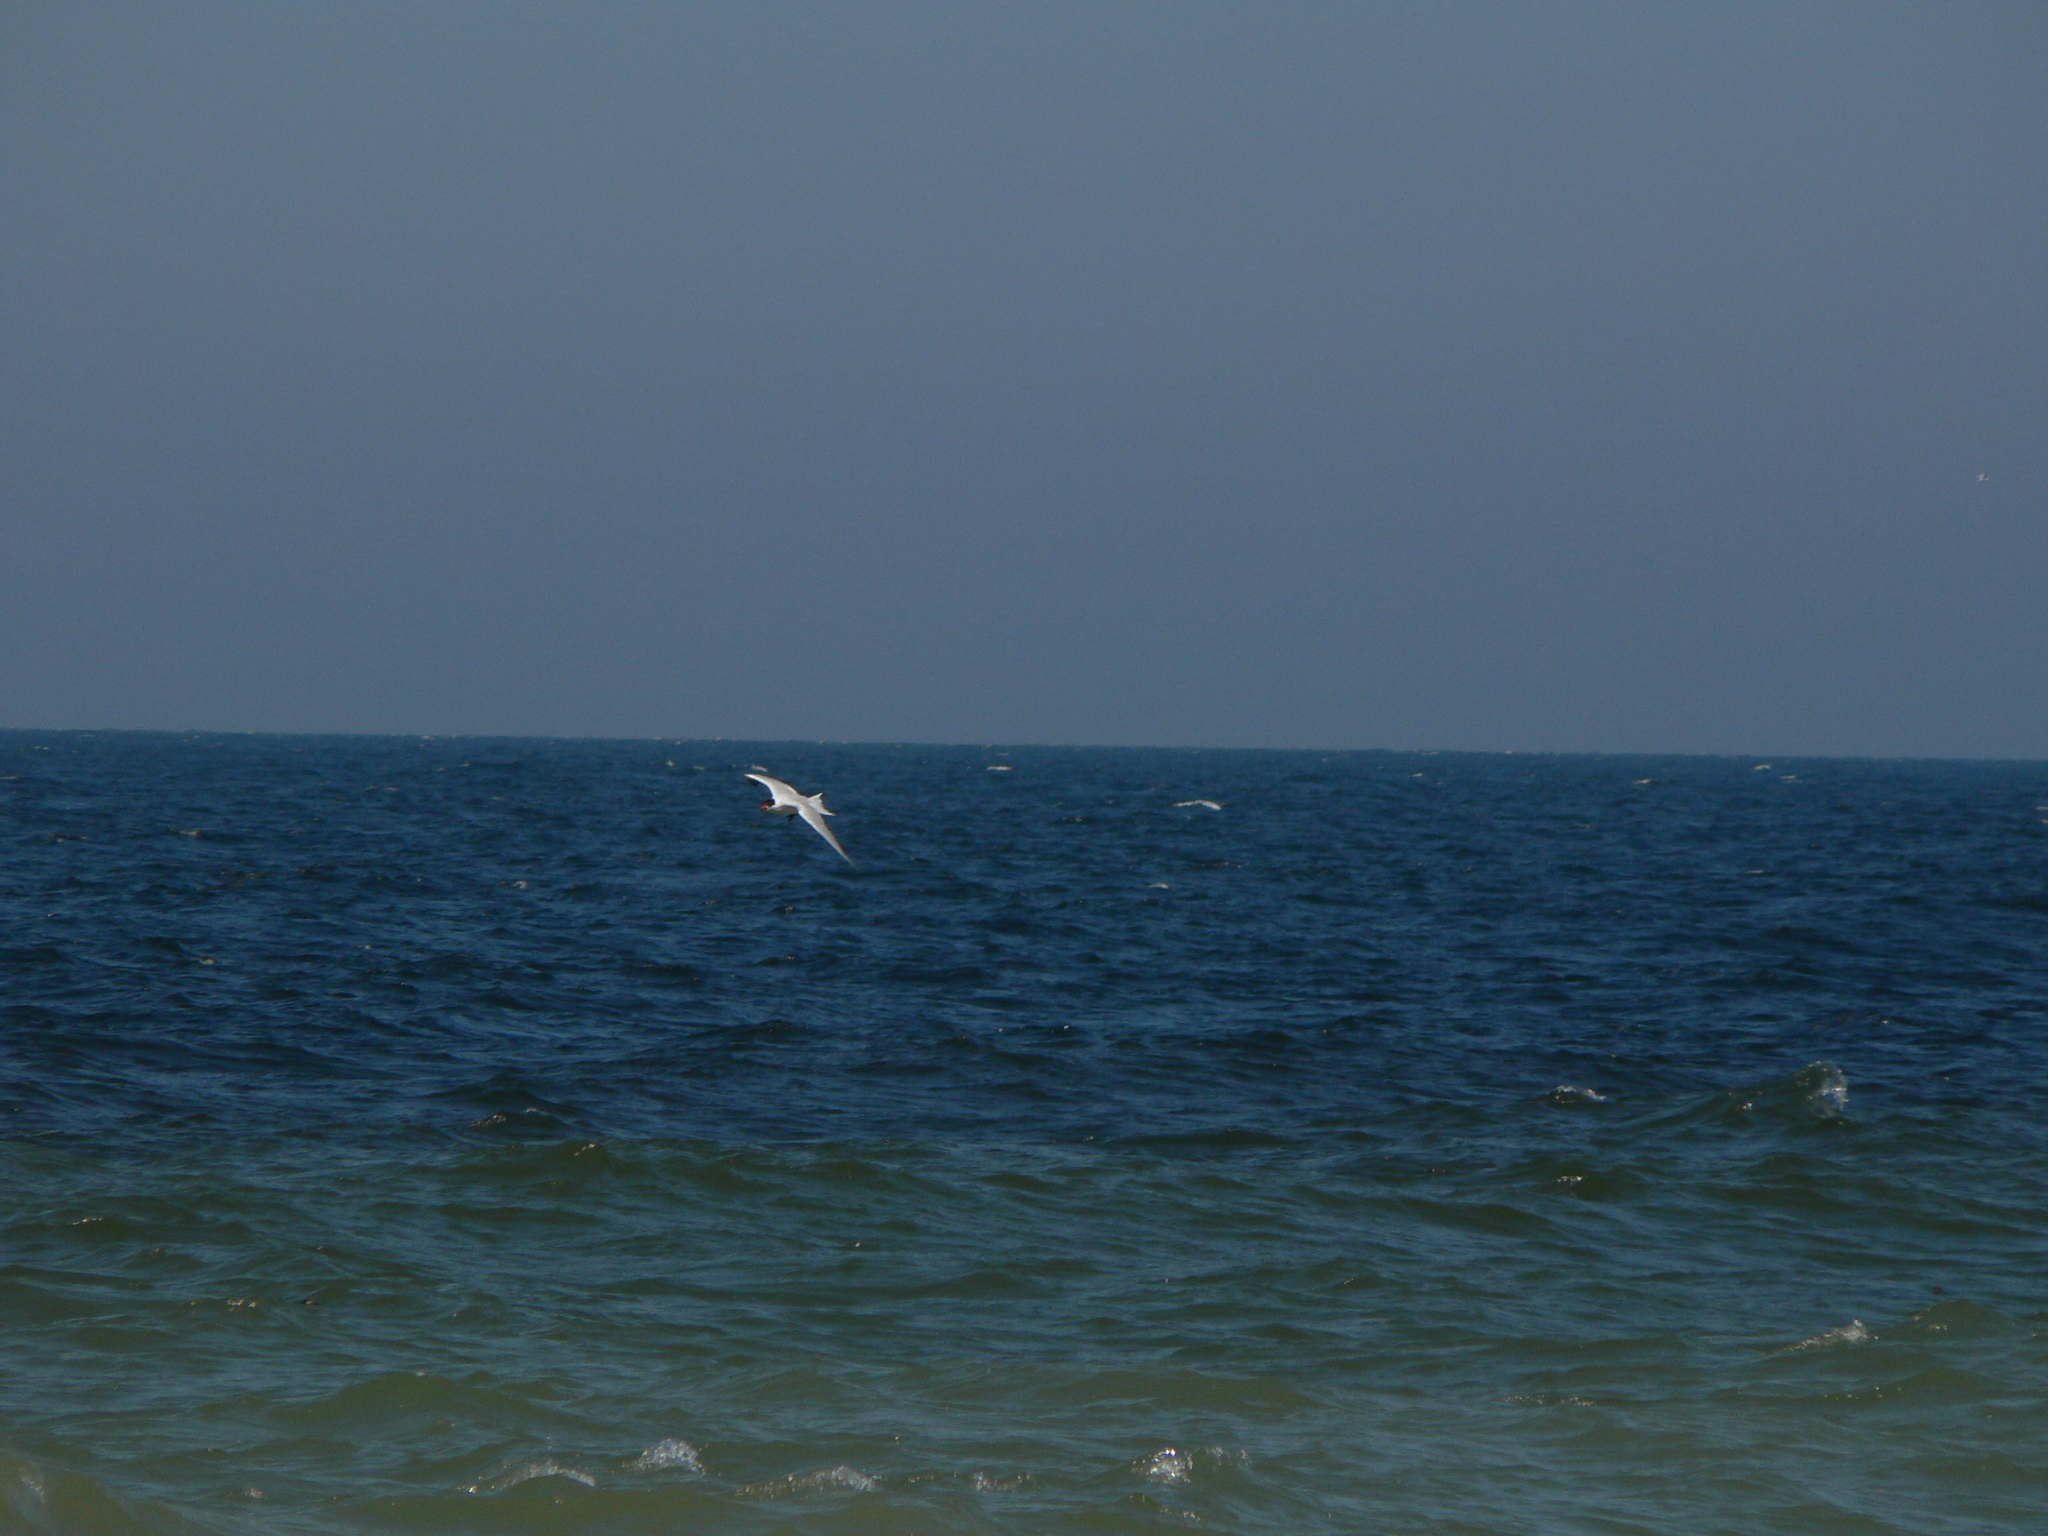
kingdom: Animalia
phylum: Chordata
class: Aves
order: Charadriiformes
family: Laridae
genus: Hydroprogne
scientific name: Hydroprogne caspia
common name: Caspian tern
